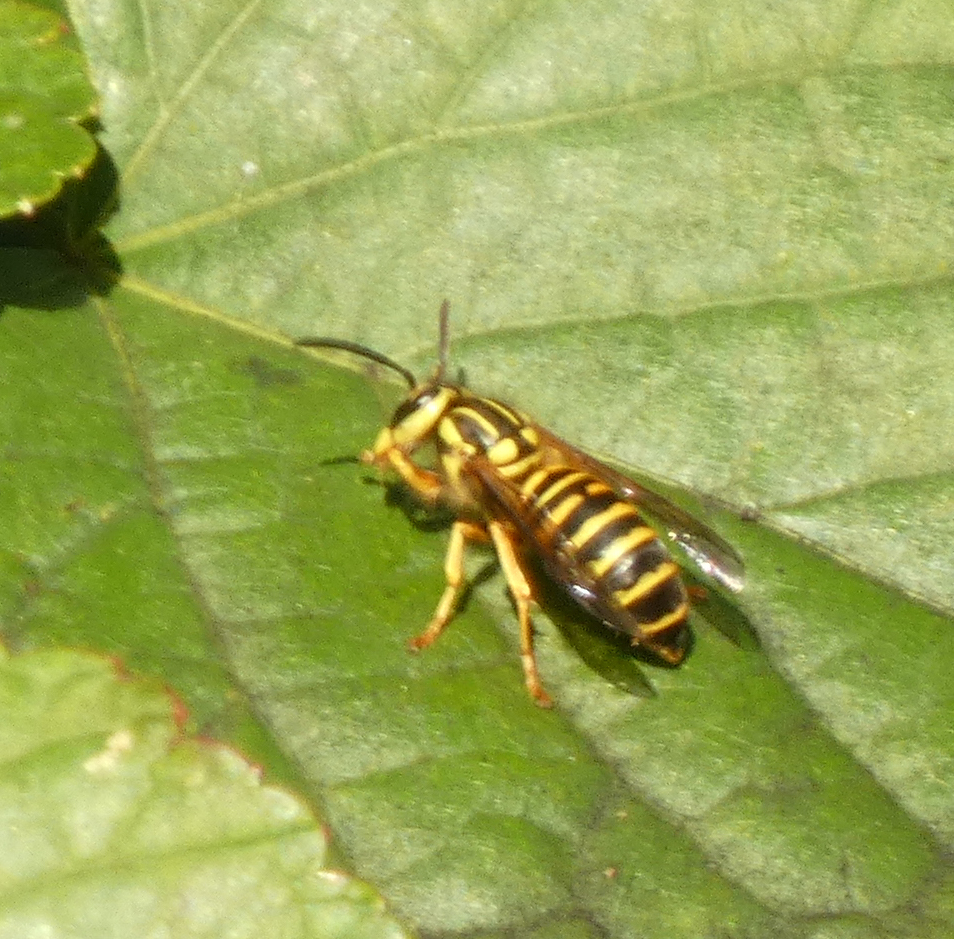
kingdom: Animalia
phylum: Arthropoda
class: Insecta
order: Hymenoptera
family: Vespidae
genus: Vespula
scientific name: Vespula squamosa
